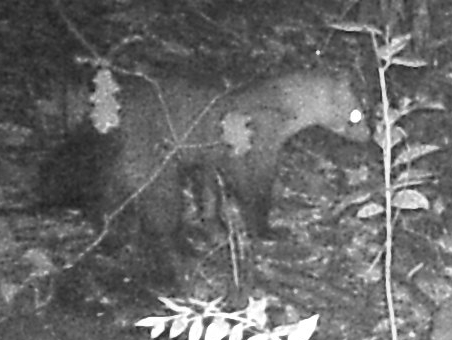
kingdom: Animalia
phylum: Chordata
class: Mammalia
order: Carnivora
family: Mustelidae
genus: Martes
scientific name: Martes foina
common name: Beech marten
